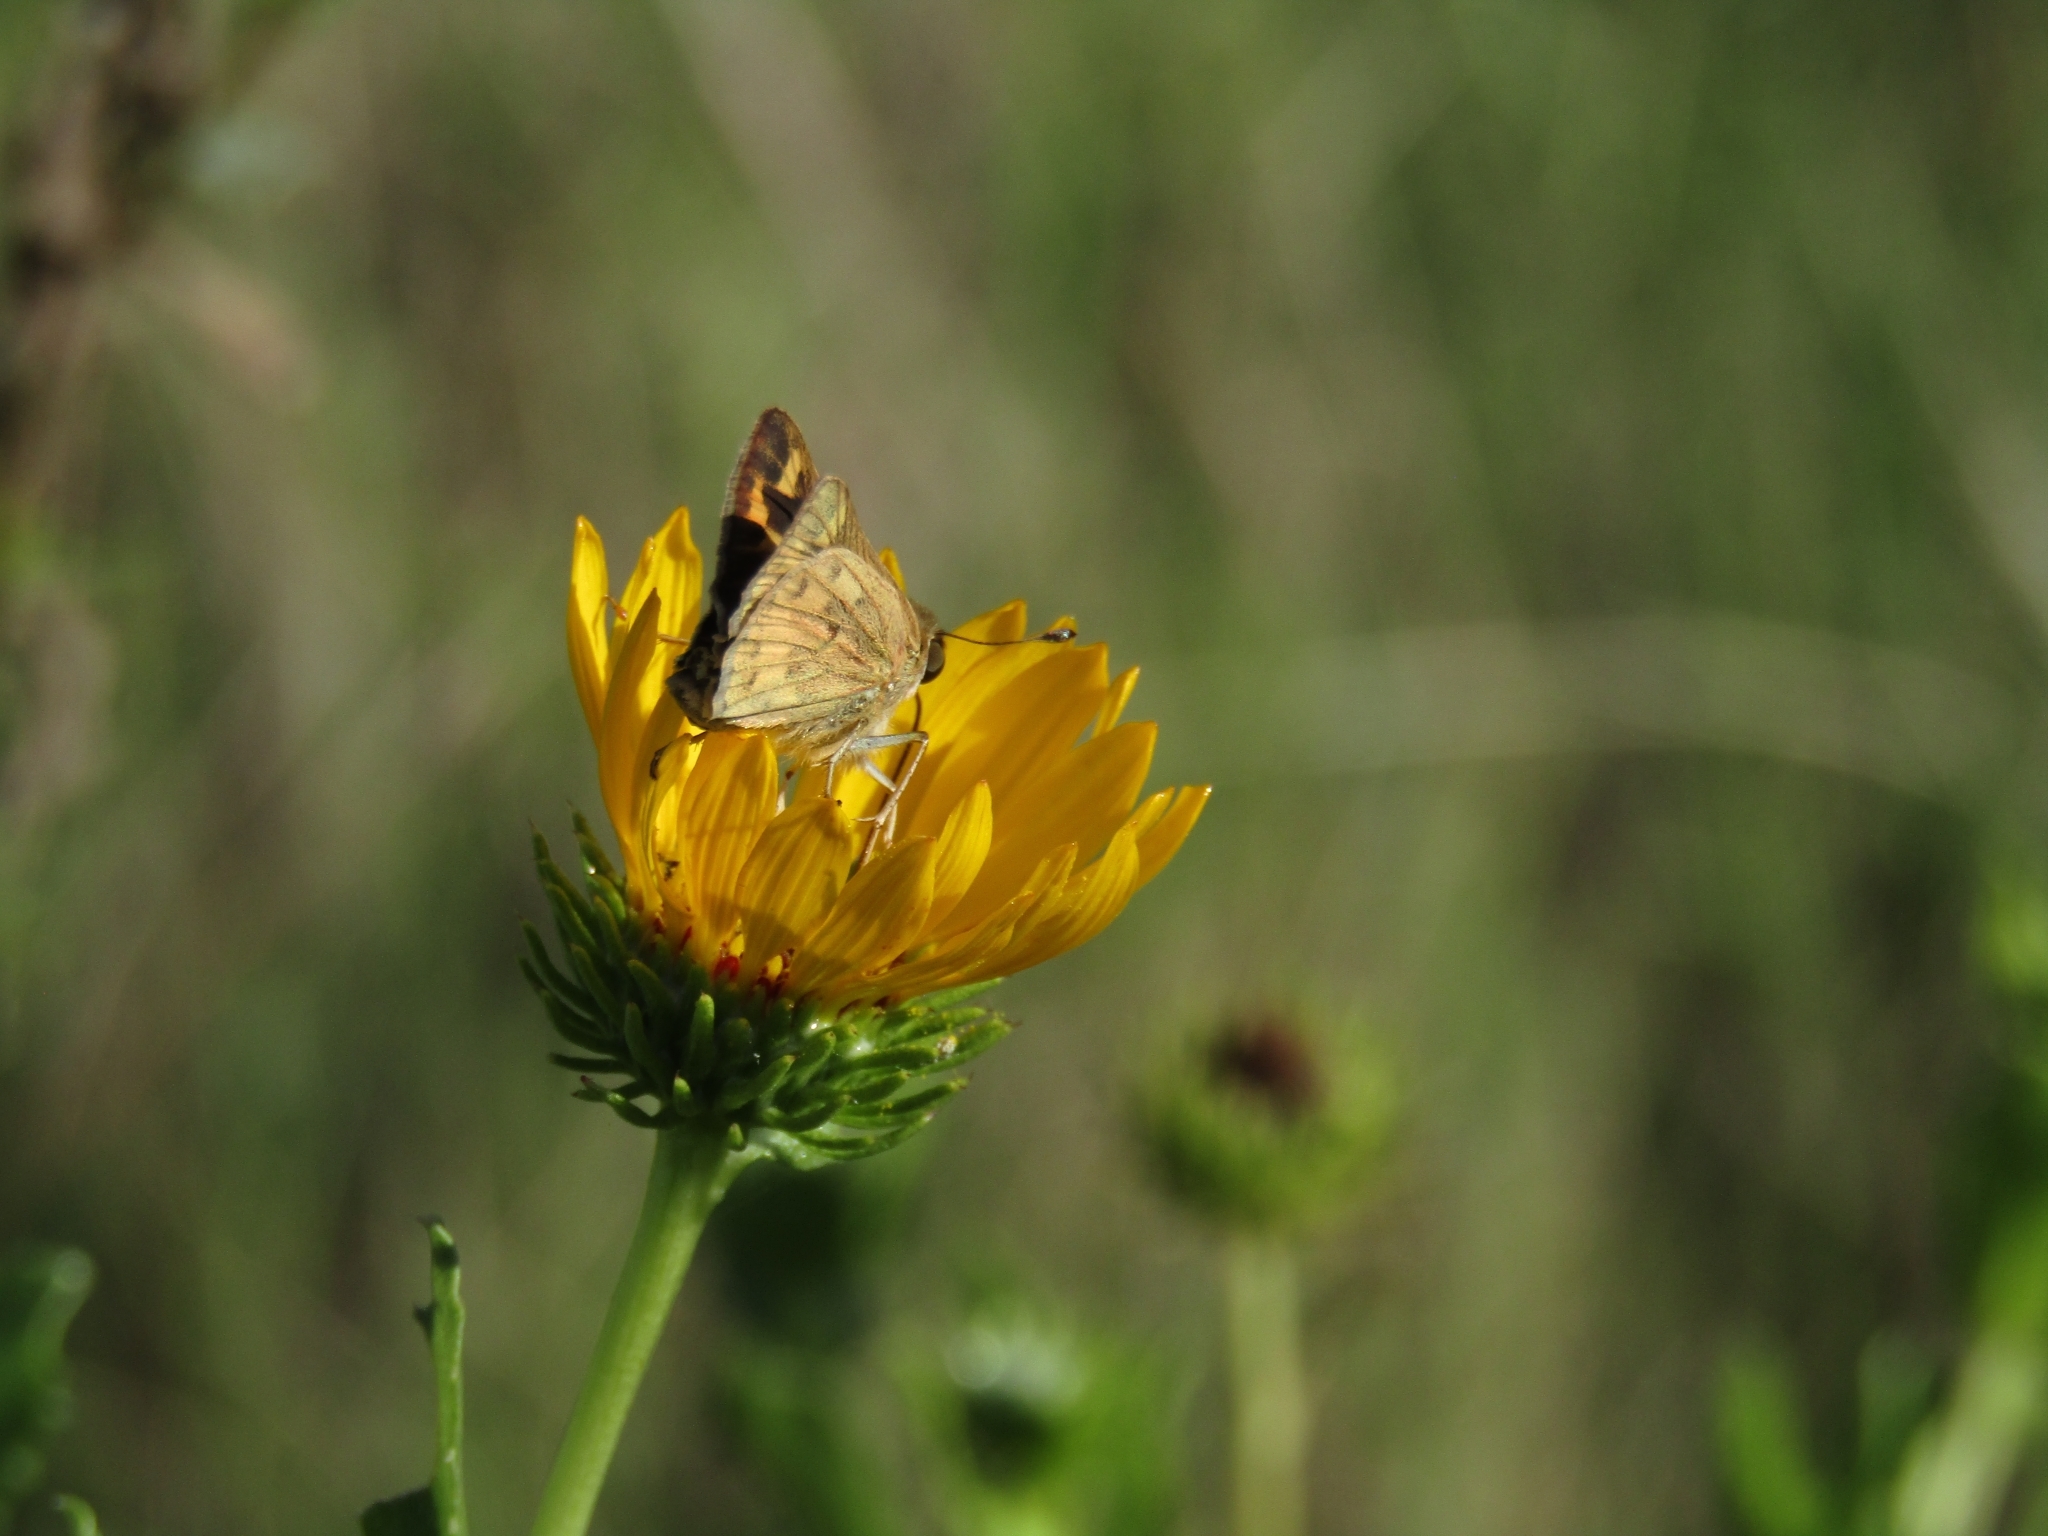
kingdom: Animalia
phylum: Arthropoda
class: Insecta
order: Lepidoptera
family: Hesperiidae
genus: Hylephila
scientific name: Hylephila phyleus
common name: Fiery skipper
